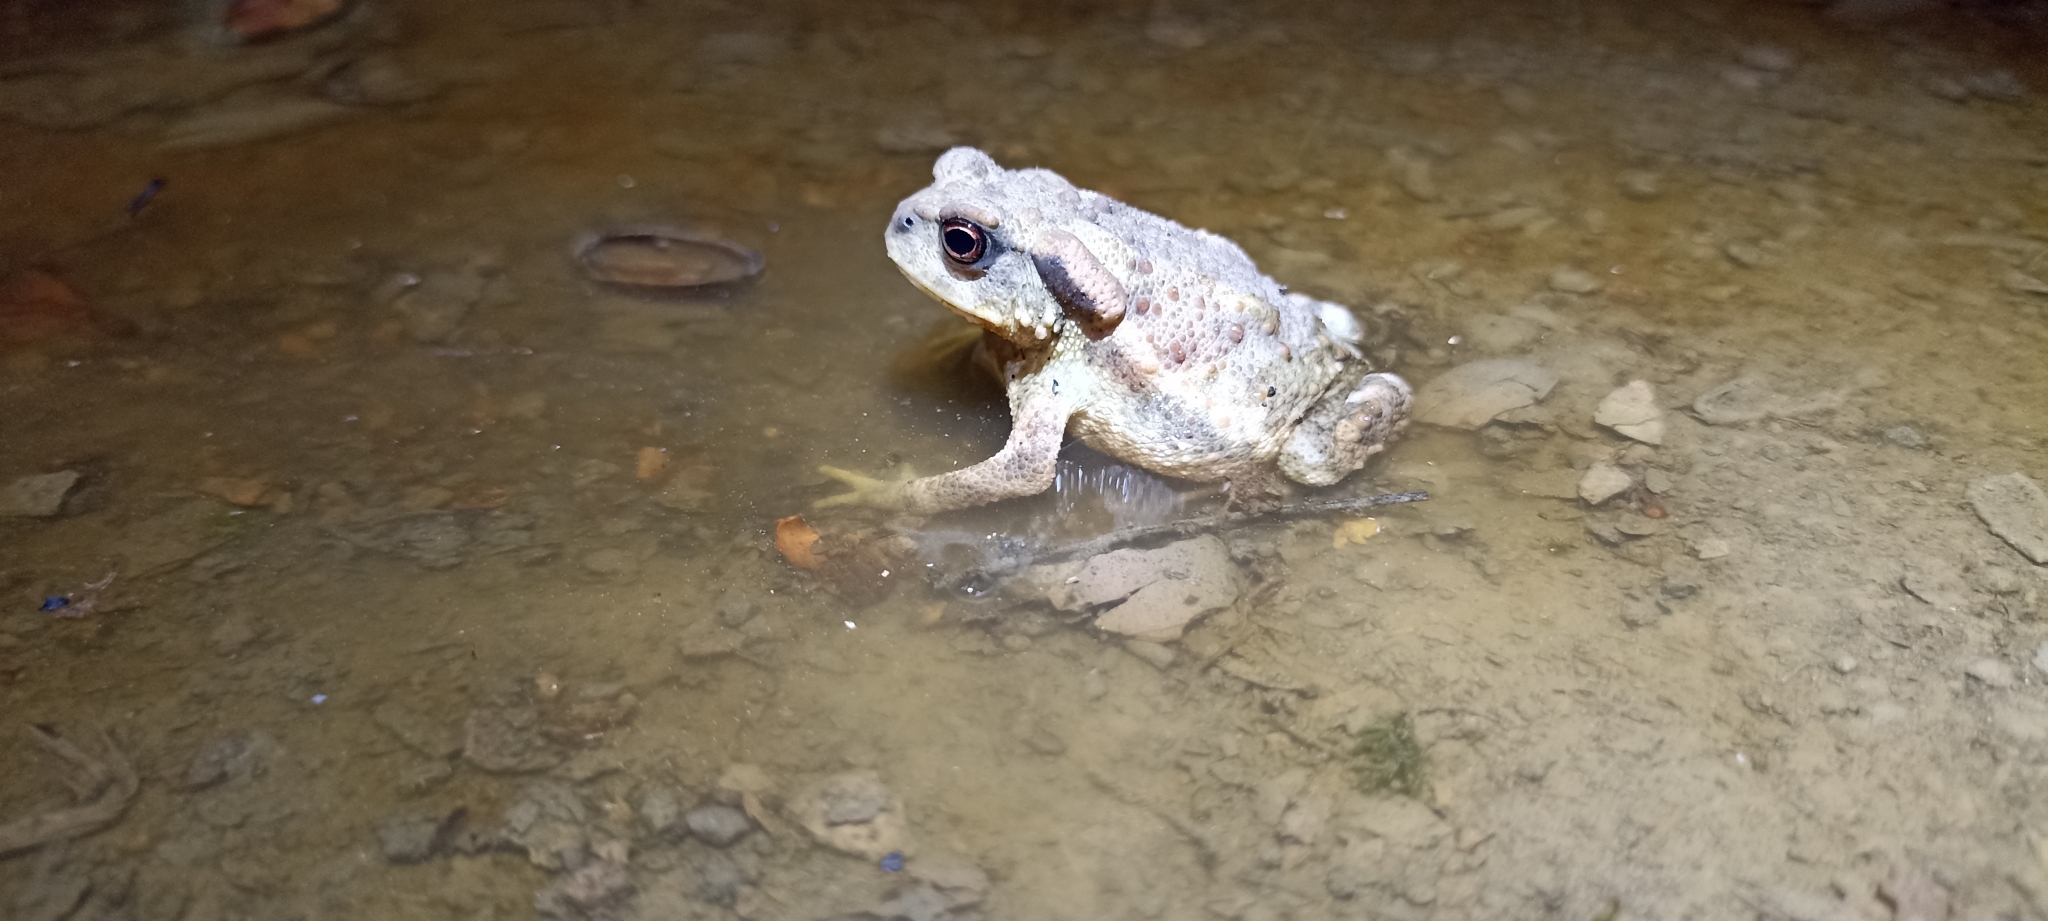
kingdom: Animalia
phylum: Chordata
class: Amphibia
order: Anura
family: Bufonidae
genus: Bufo
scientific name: Bufo spinosus
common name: Western common toad
